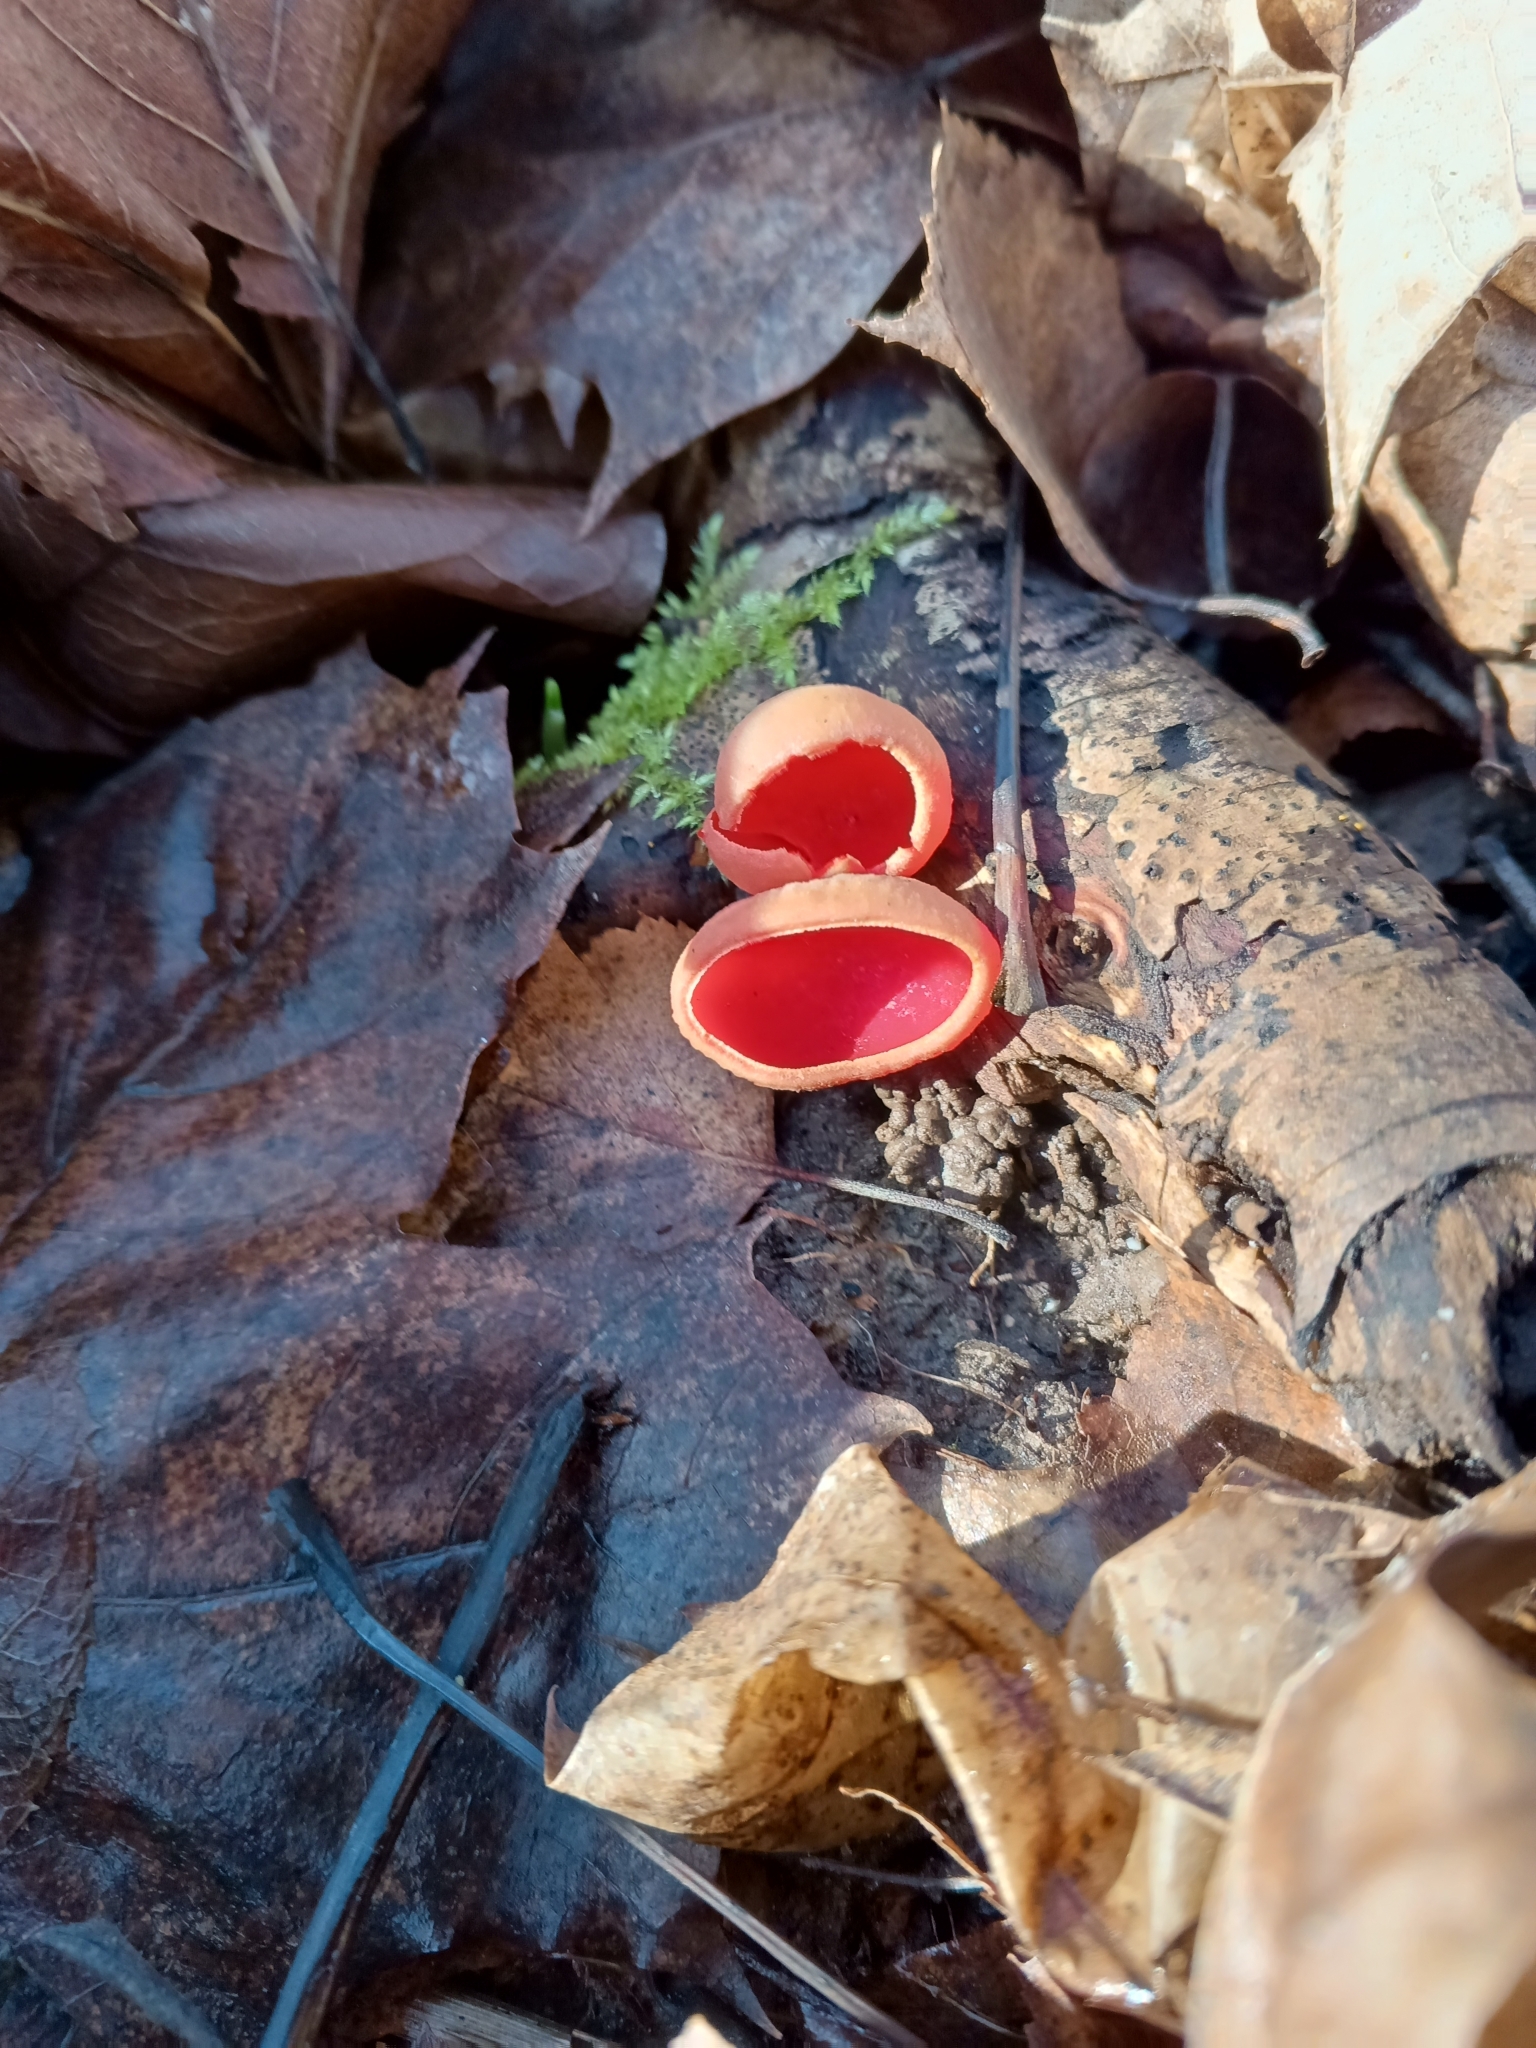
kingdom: Fungi
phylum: Ascomycota
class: Pezizomycetes
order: Pezizales
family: Sarcoscyphaceae
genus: Sarcoscypha
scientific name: Sarcoscypha austriaca
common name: Scarlet elfcup
